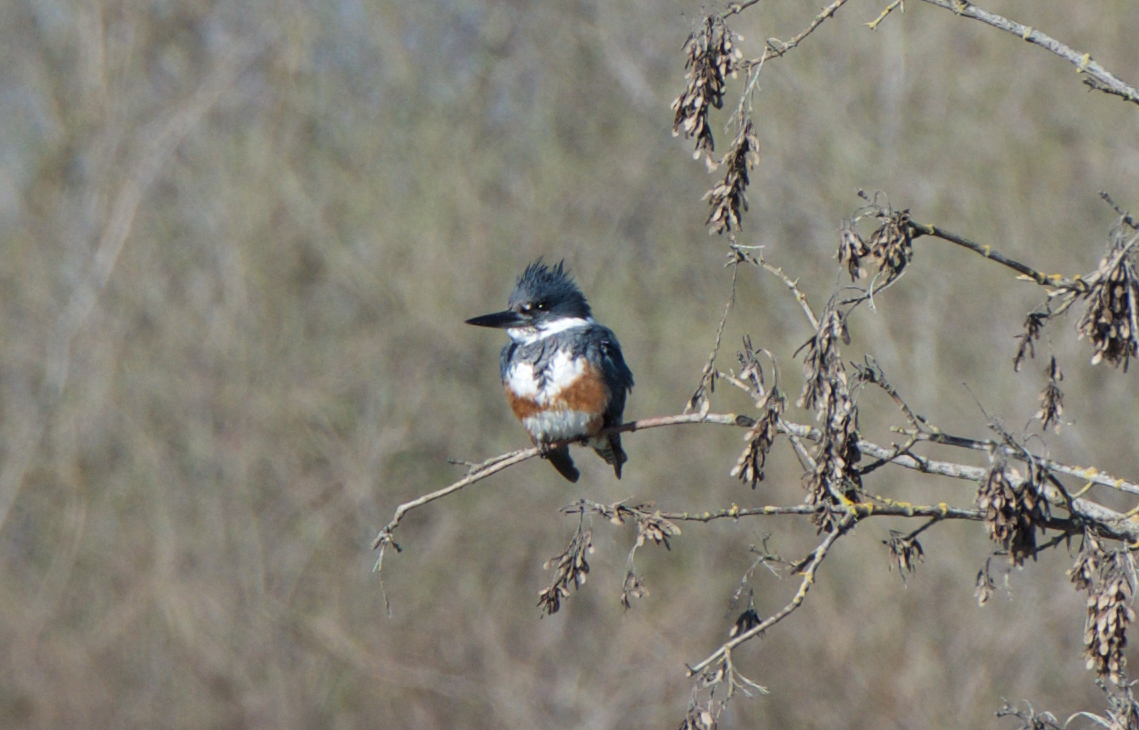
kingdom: Animalia
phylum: Chordata
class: Aves
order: Coraciiformes
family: Alcedinidae
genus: Megaceryle
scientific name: Megaceryle alcyon
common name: Belted kingfisher
